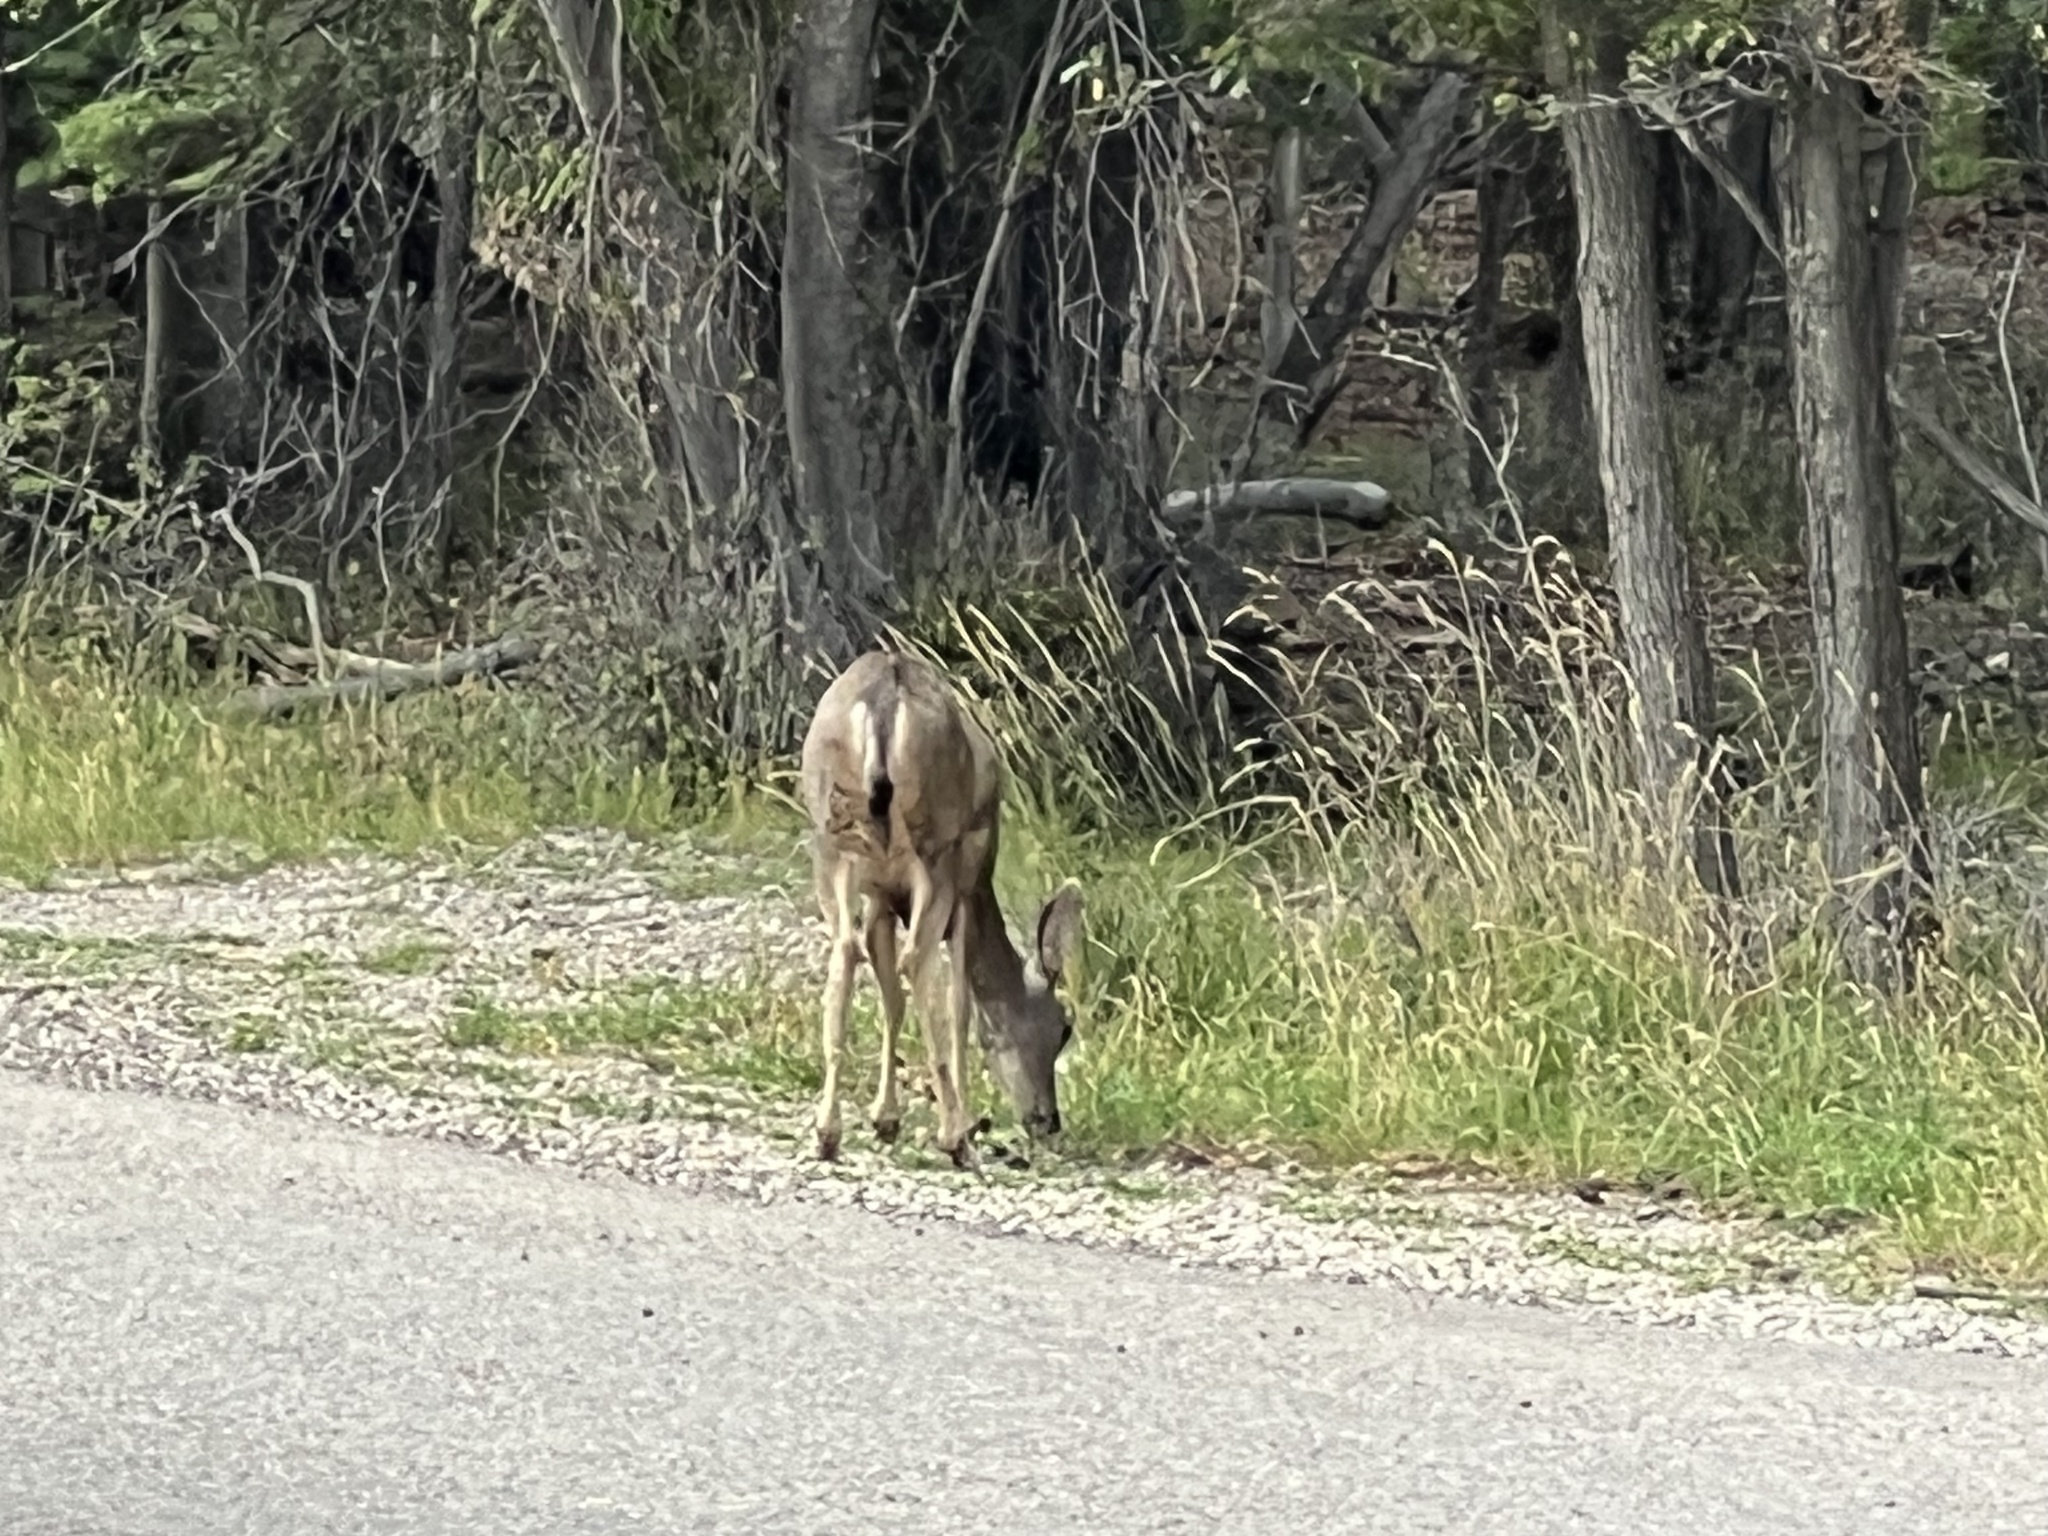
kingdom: Animalia
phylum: Chordata
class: Mammalia
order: Artiodactyla
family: Cervidae
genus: Odocoileus
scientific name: Odocoileus hemionus
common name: Mule deer
